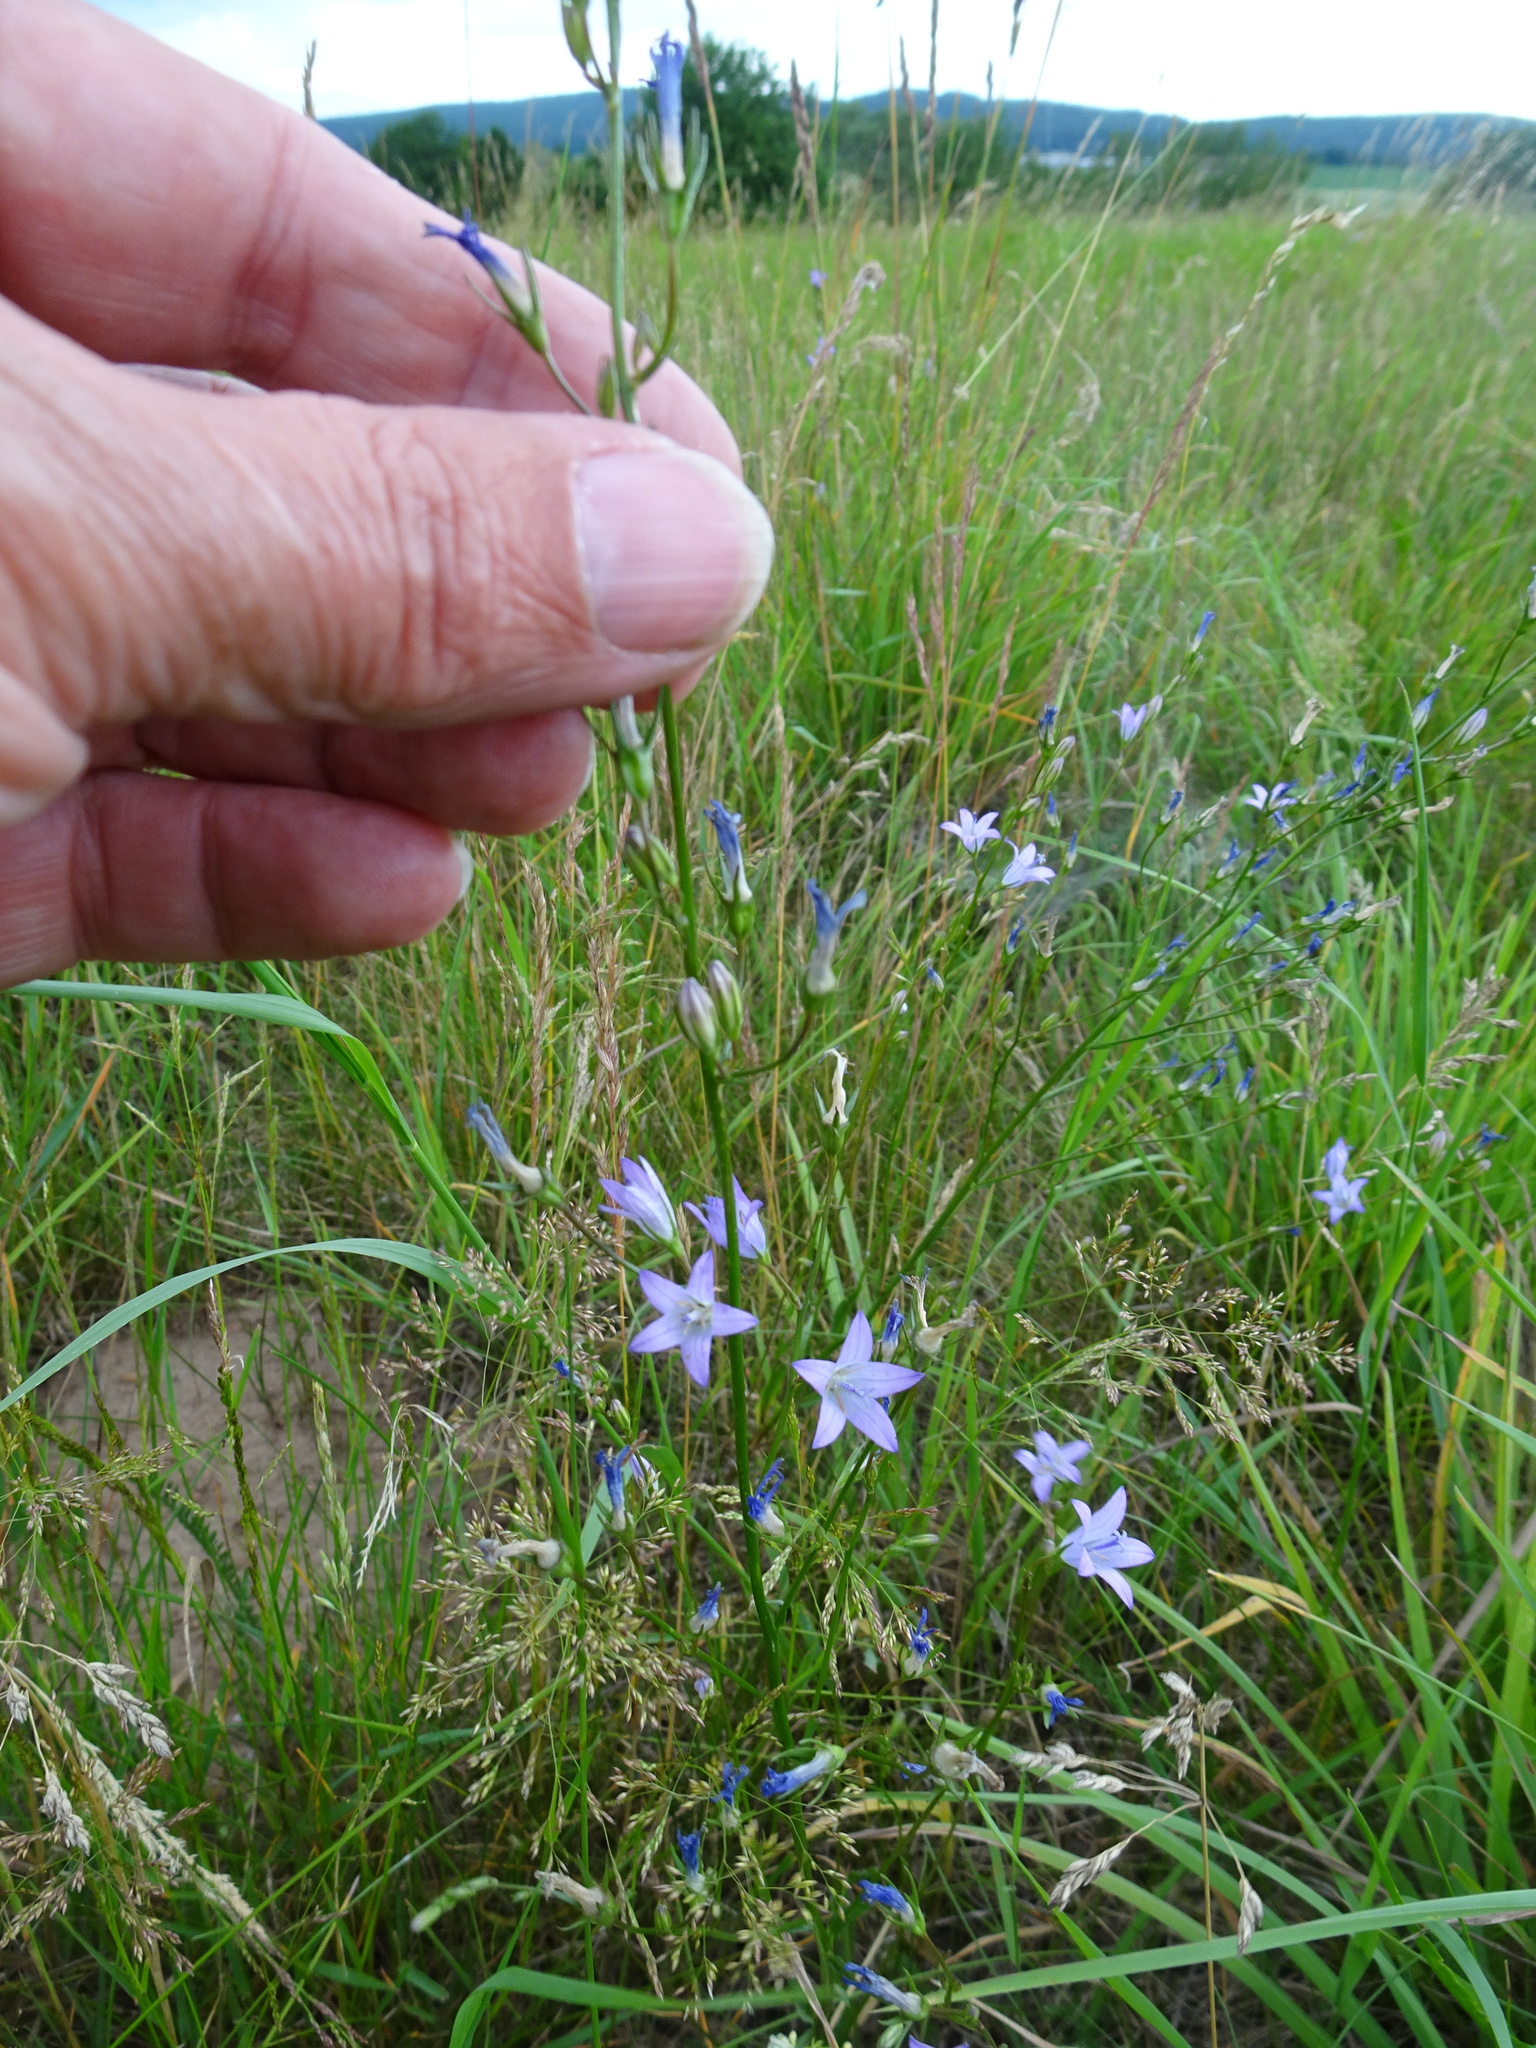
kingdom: Plantae
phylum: Tracheophyta
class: Magnoliopsida
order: Asterales
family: Campanulaceae
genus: Campanula
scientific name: Campanula rapunculus
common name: Rampion bellflower
